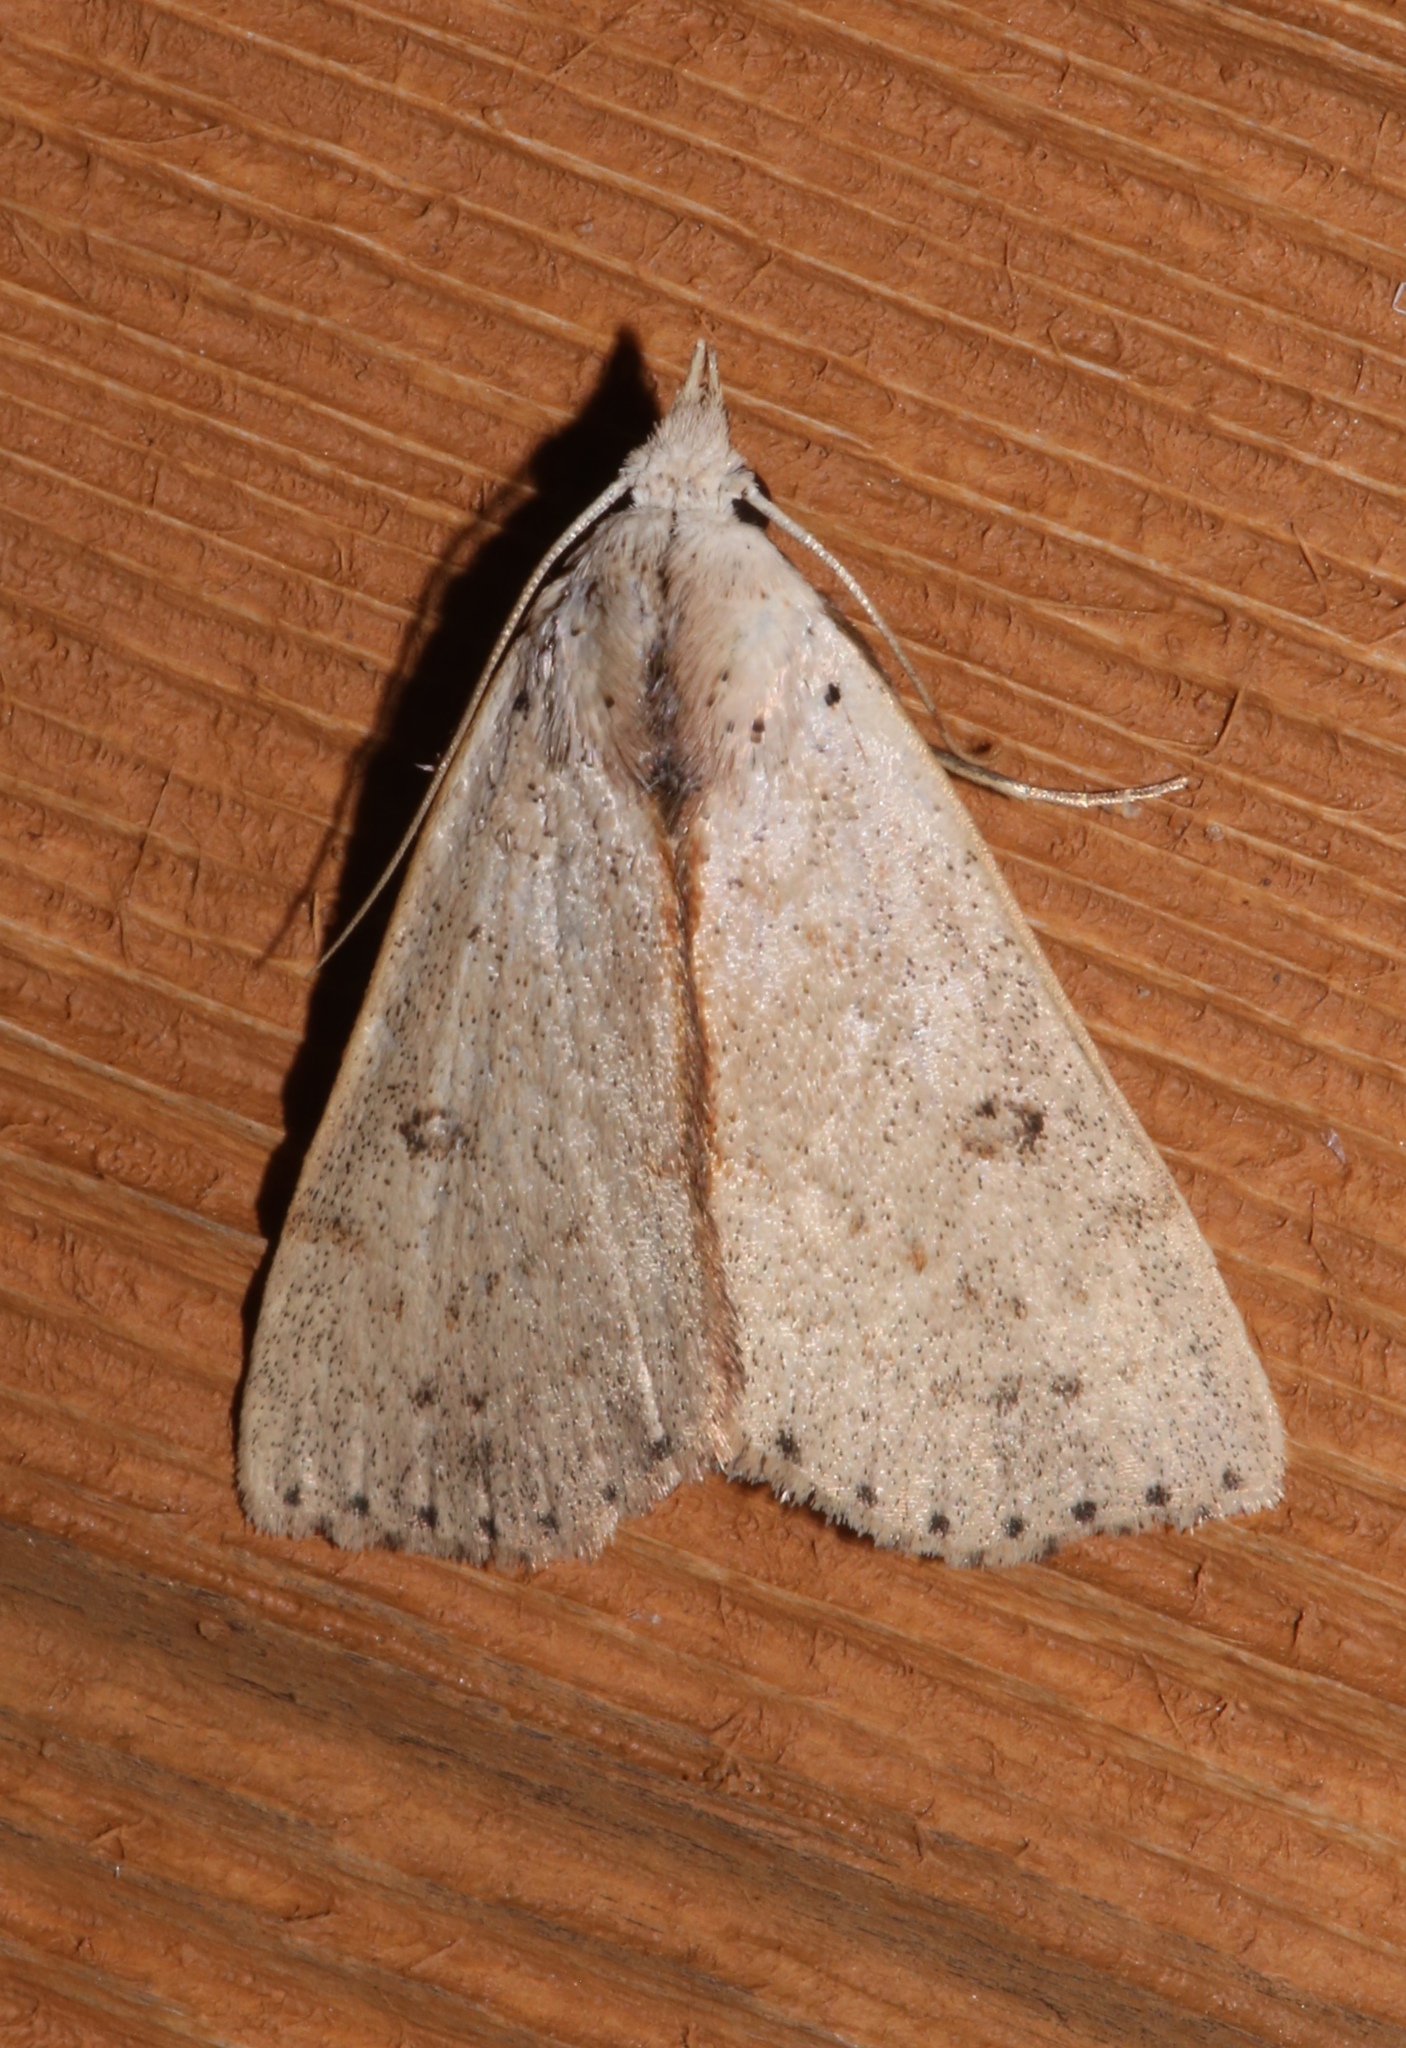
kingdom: Animalia
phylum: Arthropoda
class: Insecta
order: Lepidoptera
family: Erebidae
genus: Scolecocampa
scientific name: Scolecocampa liburna
